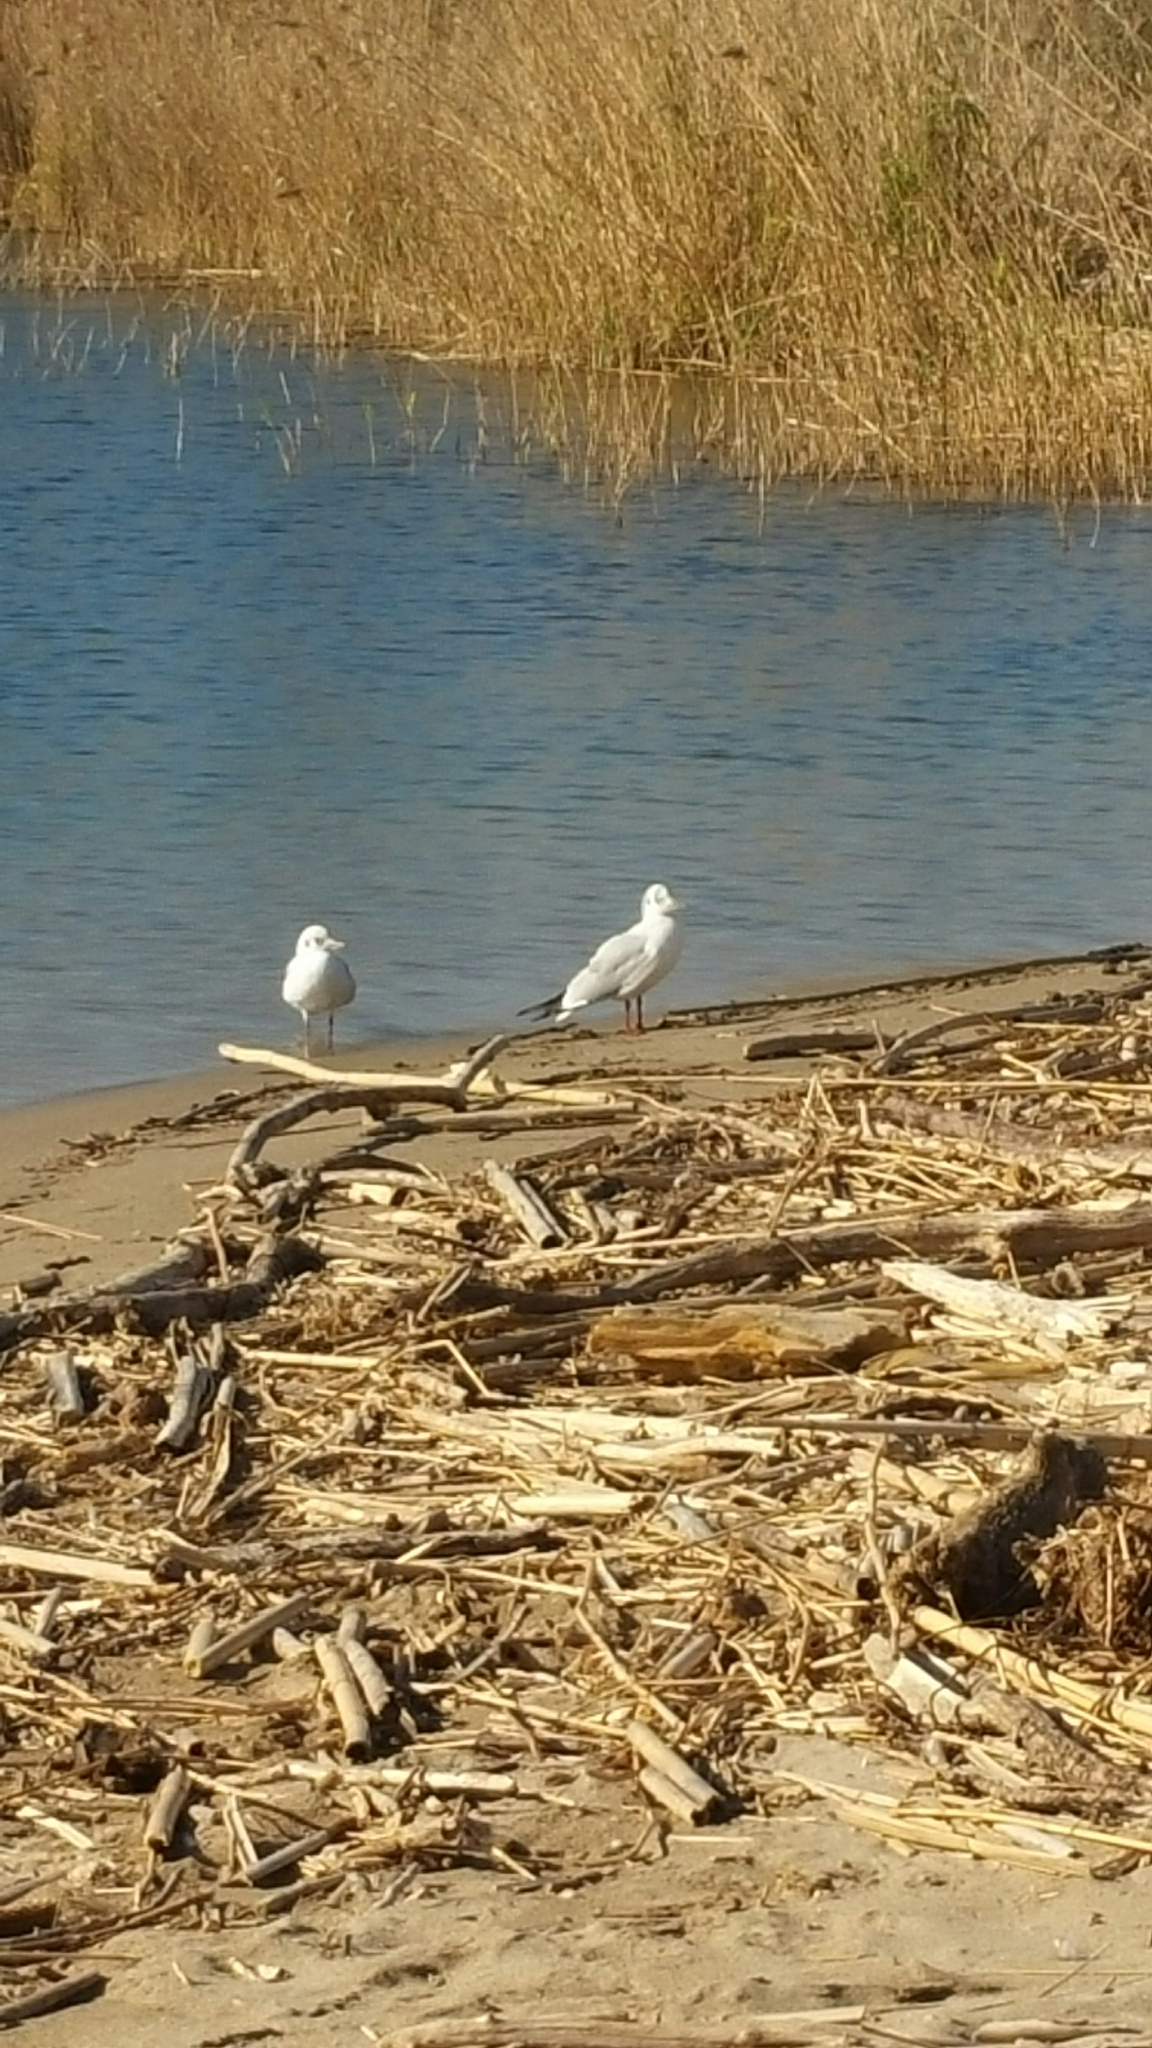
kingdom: Animalia
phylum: Chordata
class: Aves
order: Charadriiformes
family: Laridae
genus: Chroicocephalus
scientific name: Chroicocephalus ridibundus
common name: Black-headed gull
